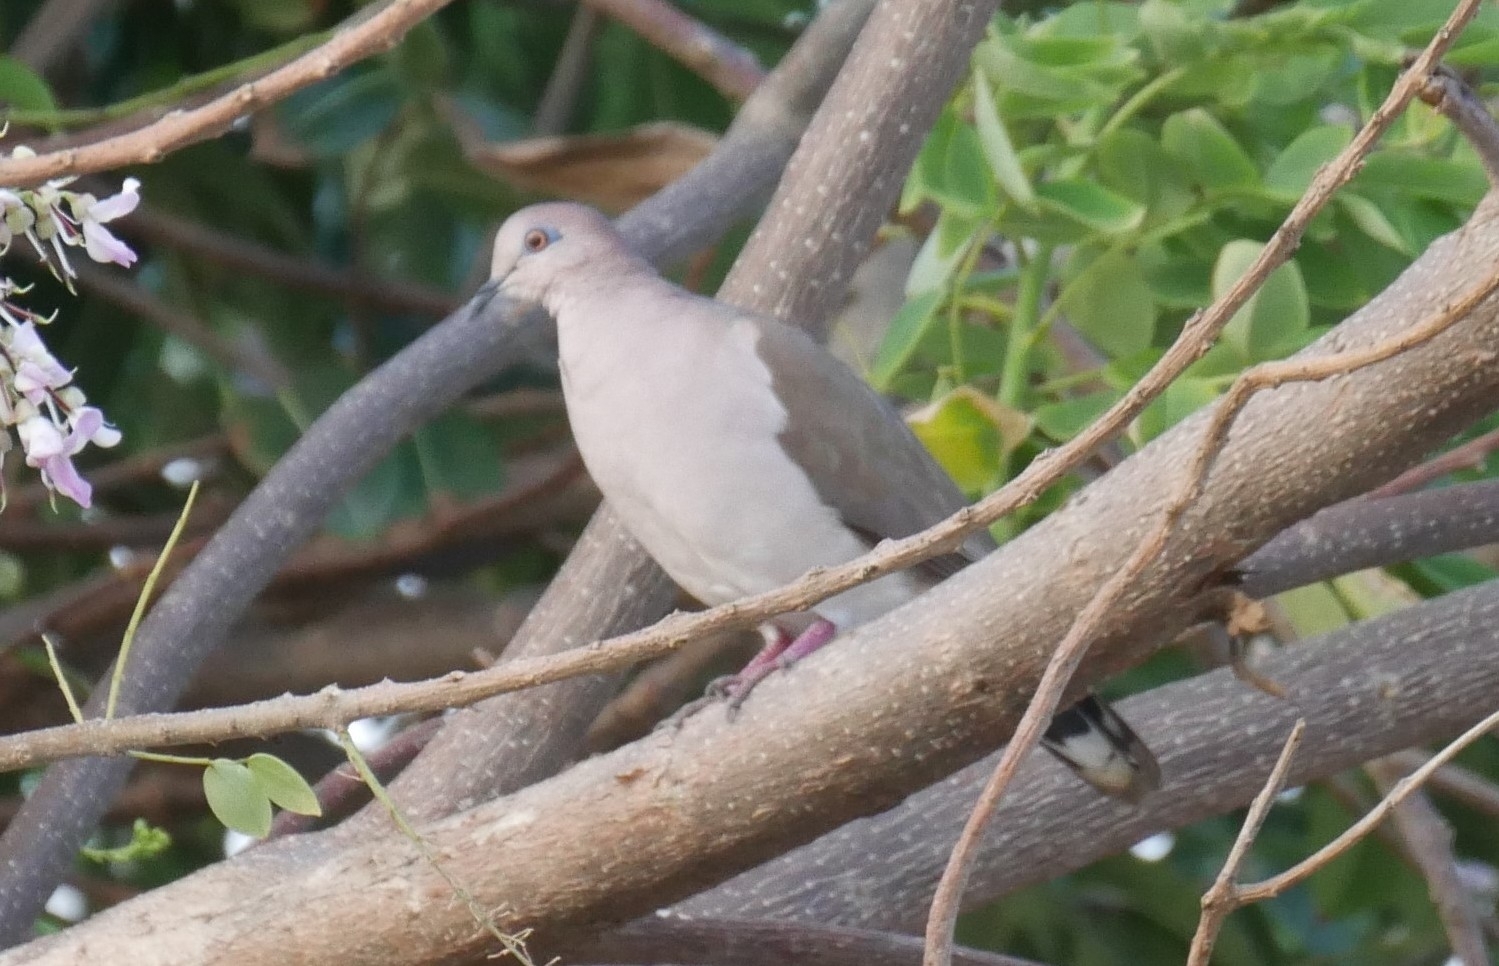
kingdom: Animalia
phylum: Chordata
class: Aves
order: Columbiformes
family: Columbidae
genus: Leptotila
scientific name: Leptotila verreauxi
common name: White-tipped dove
